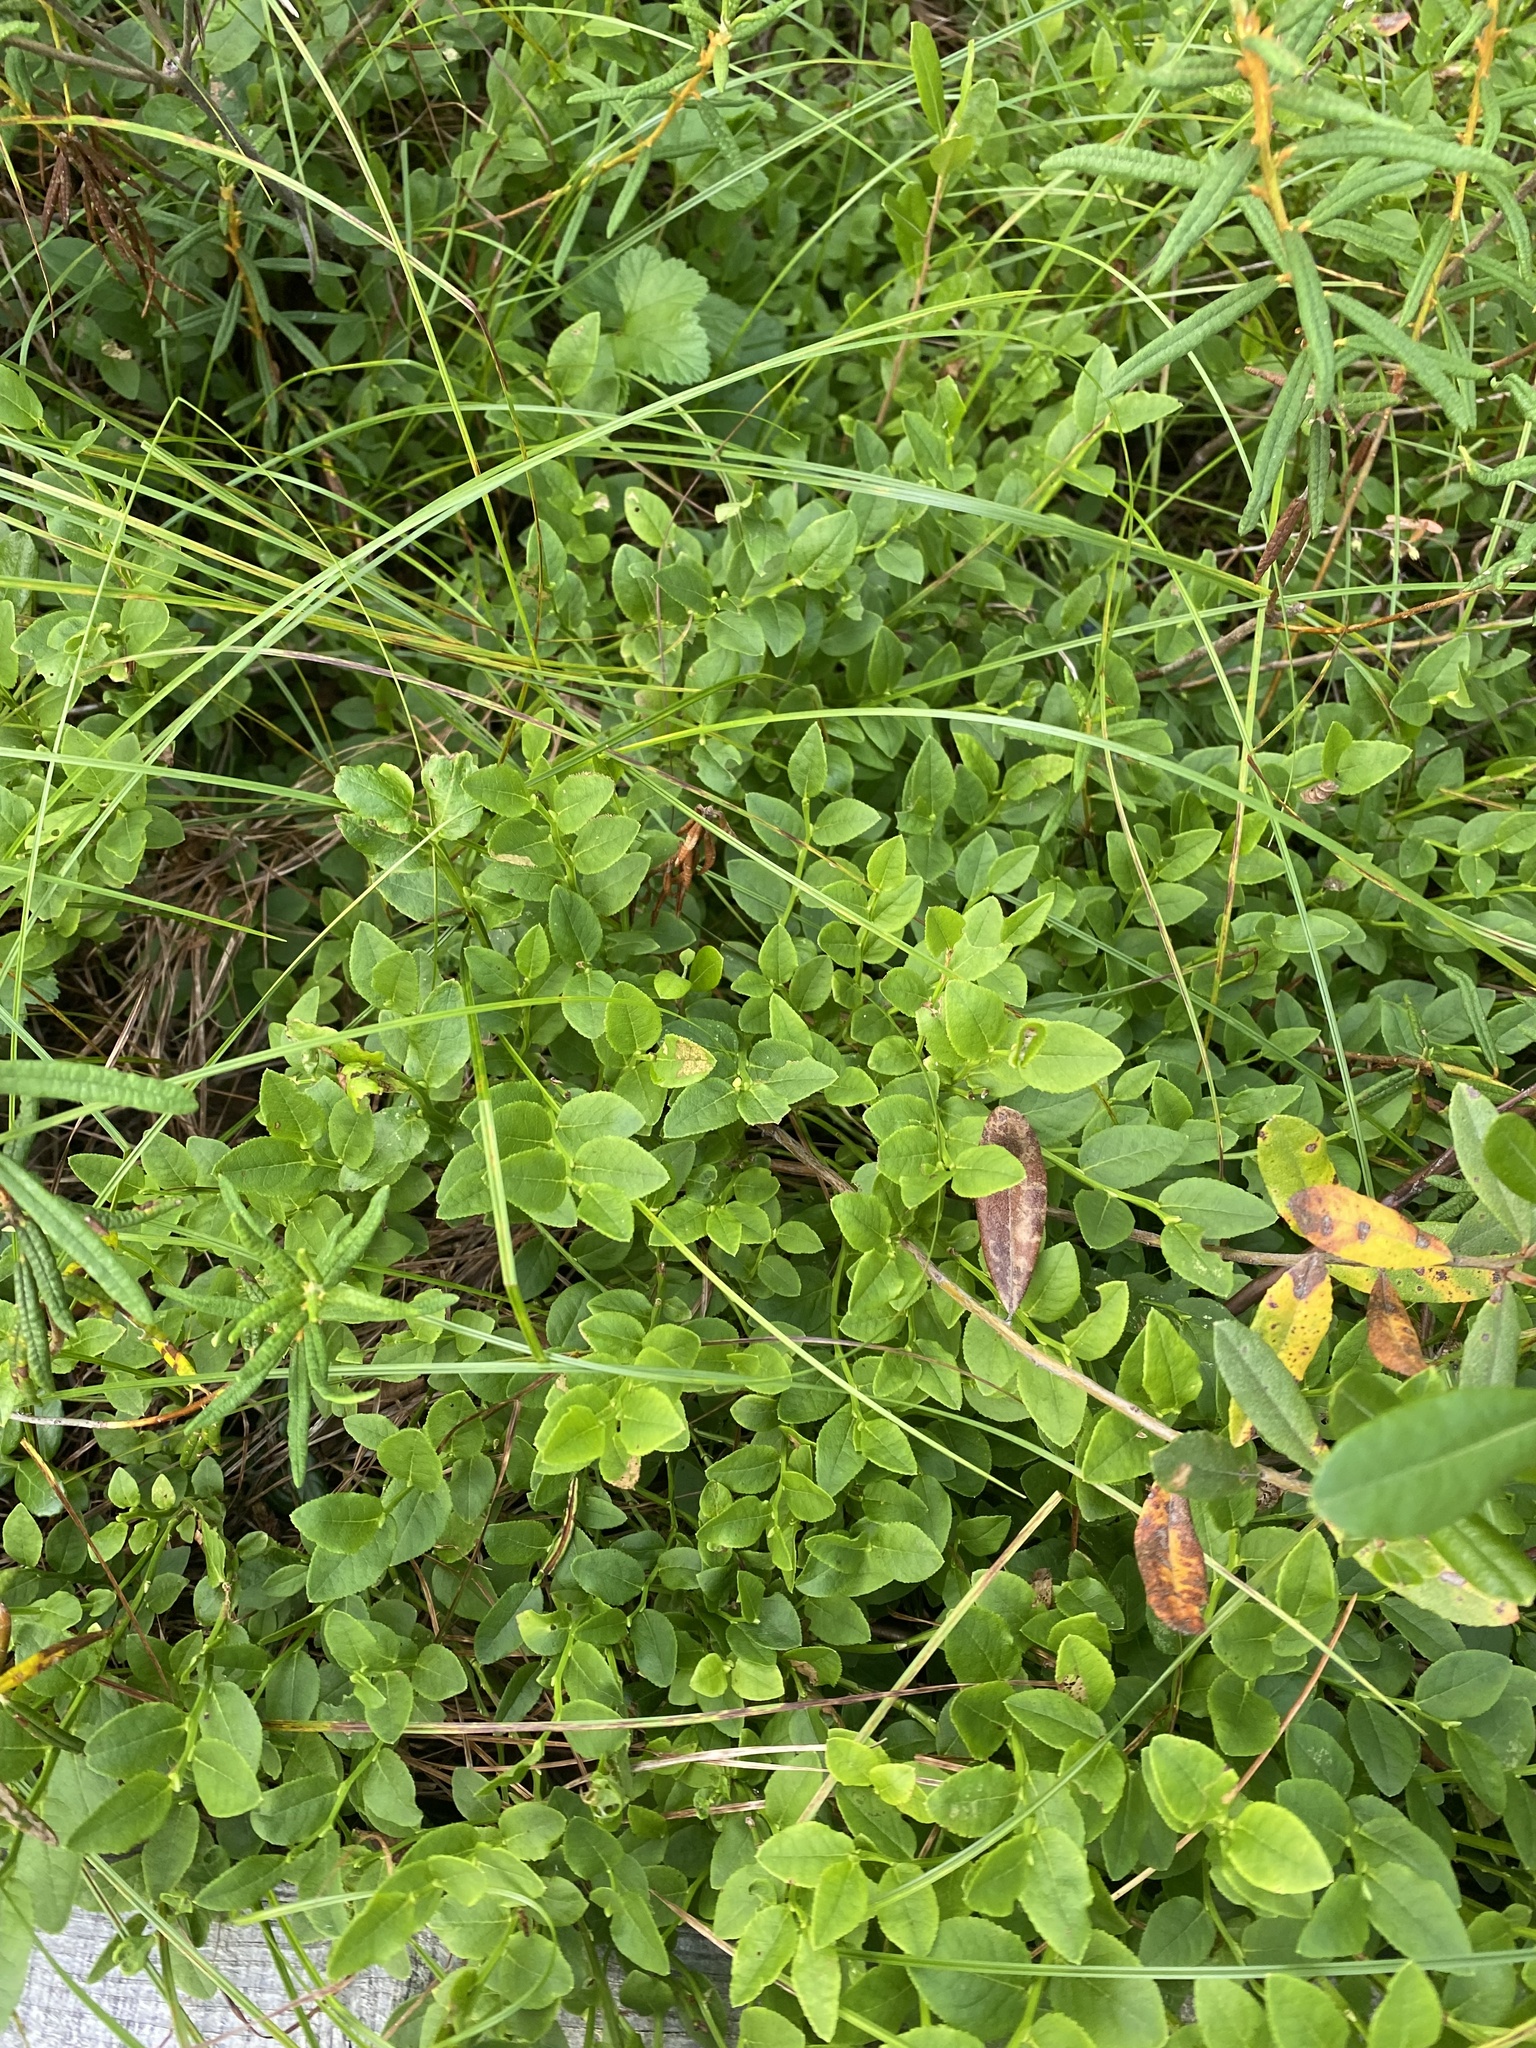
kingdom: Plantae
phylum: Tracheophyta
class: Magnoliopsida
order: Ericales
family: Ericaceae
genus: Vaccinium
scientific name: Vaccinium myrtillus
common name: Bilberry
